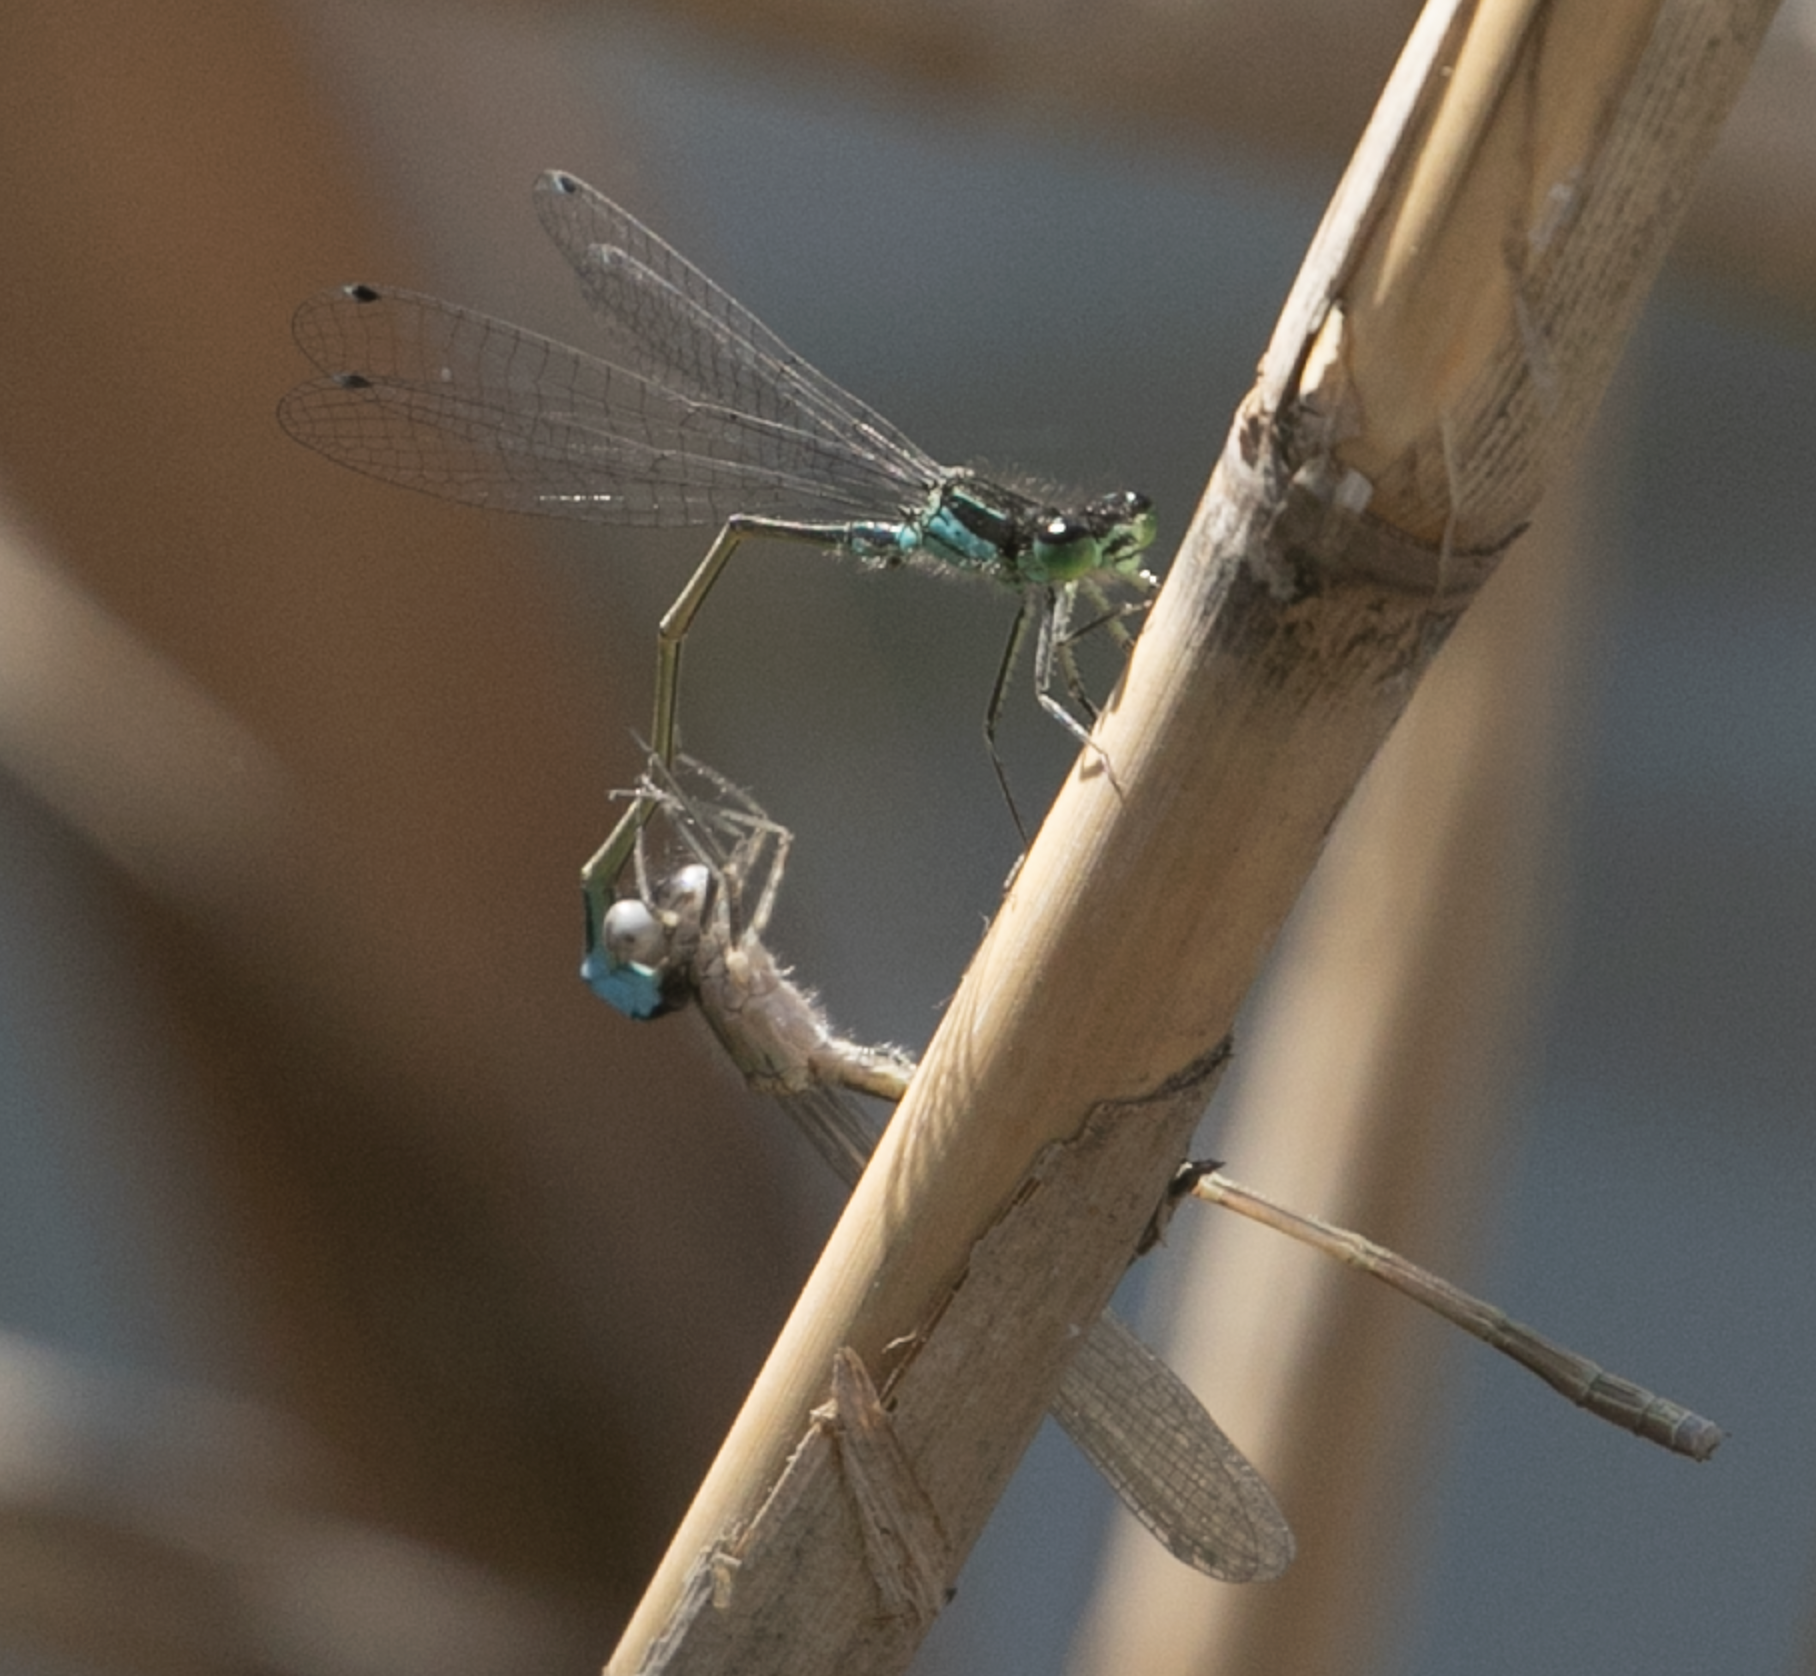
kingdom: Animalia
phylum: Arthropoda
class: Insecta
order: Odonata
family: Coenagrionidae
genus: Ischnura
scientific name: Ischnura elegans
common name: Blue-tailed damselfly
